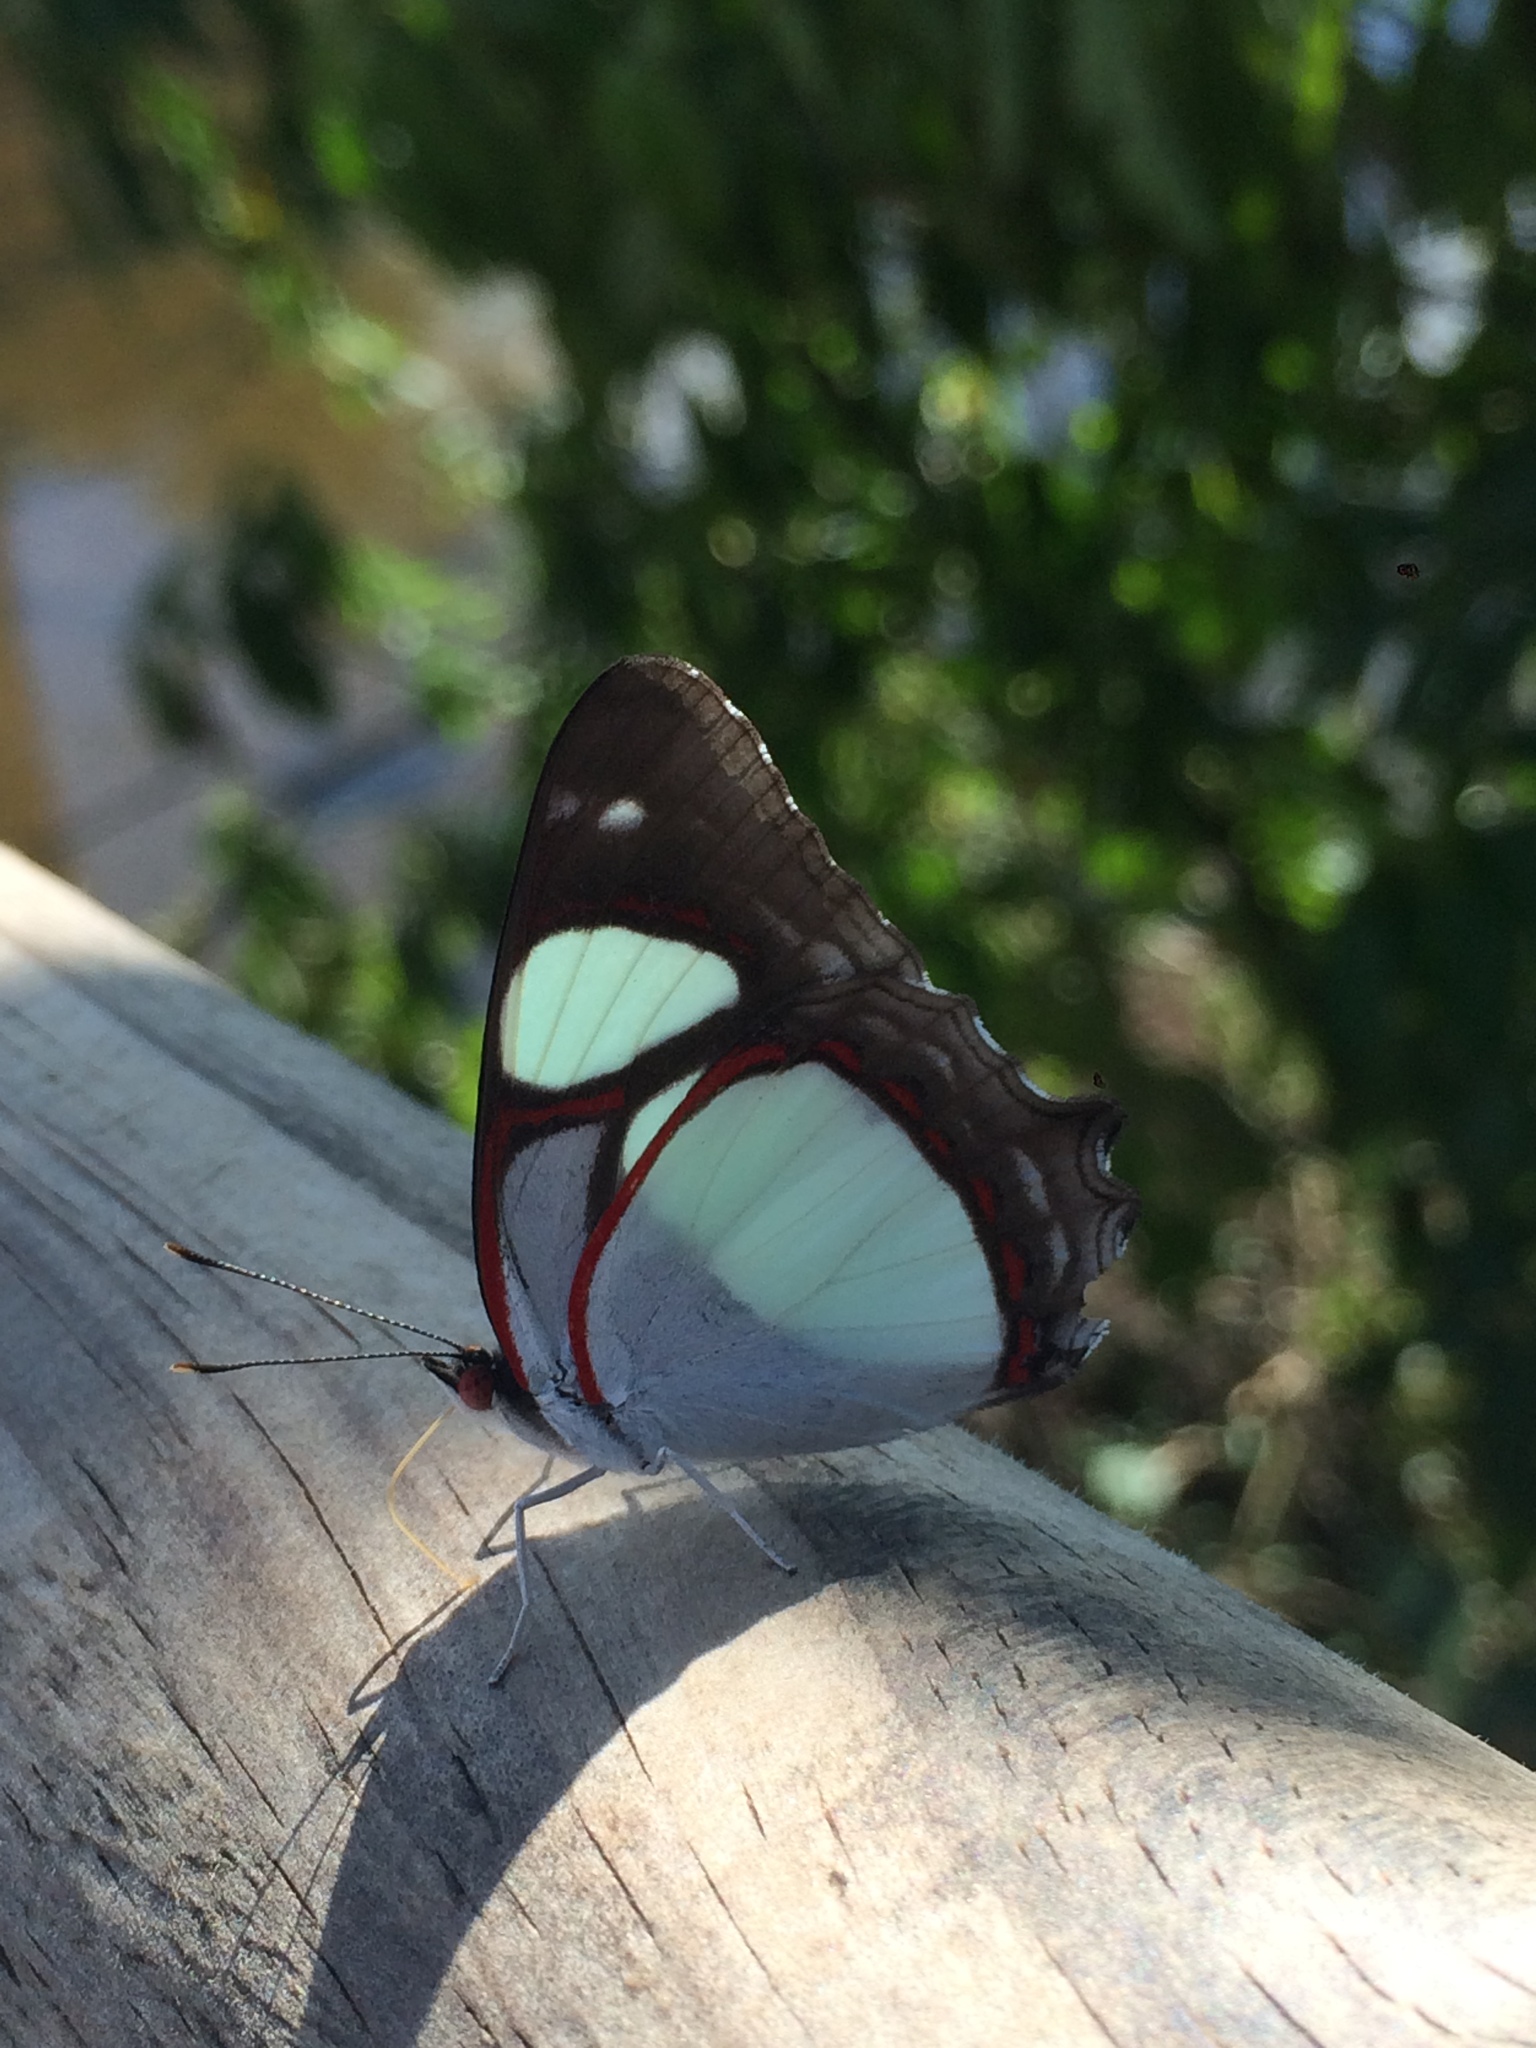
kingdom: Animalia
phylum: Arthropoda
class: Insecta
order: Lepidoptera
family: Nymphalidae
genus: Pyrrhogyra
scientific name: Pyrrhogyra neaerea
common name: Leading red-ring
